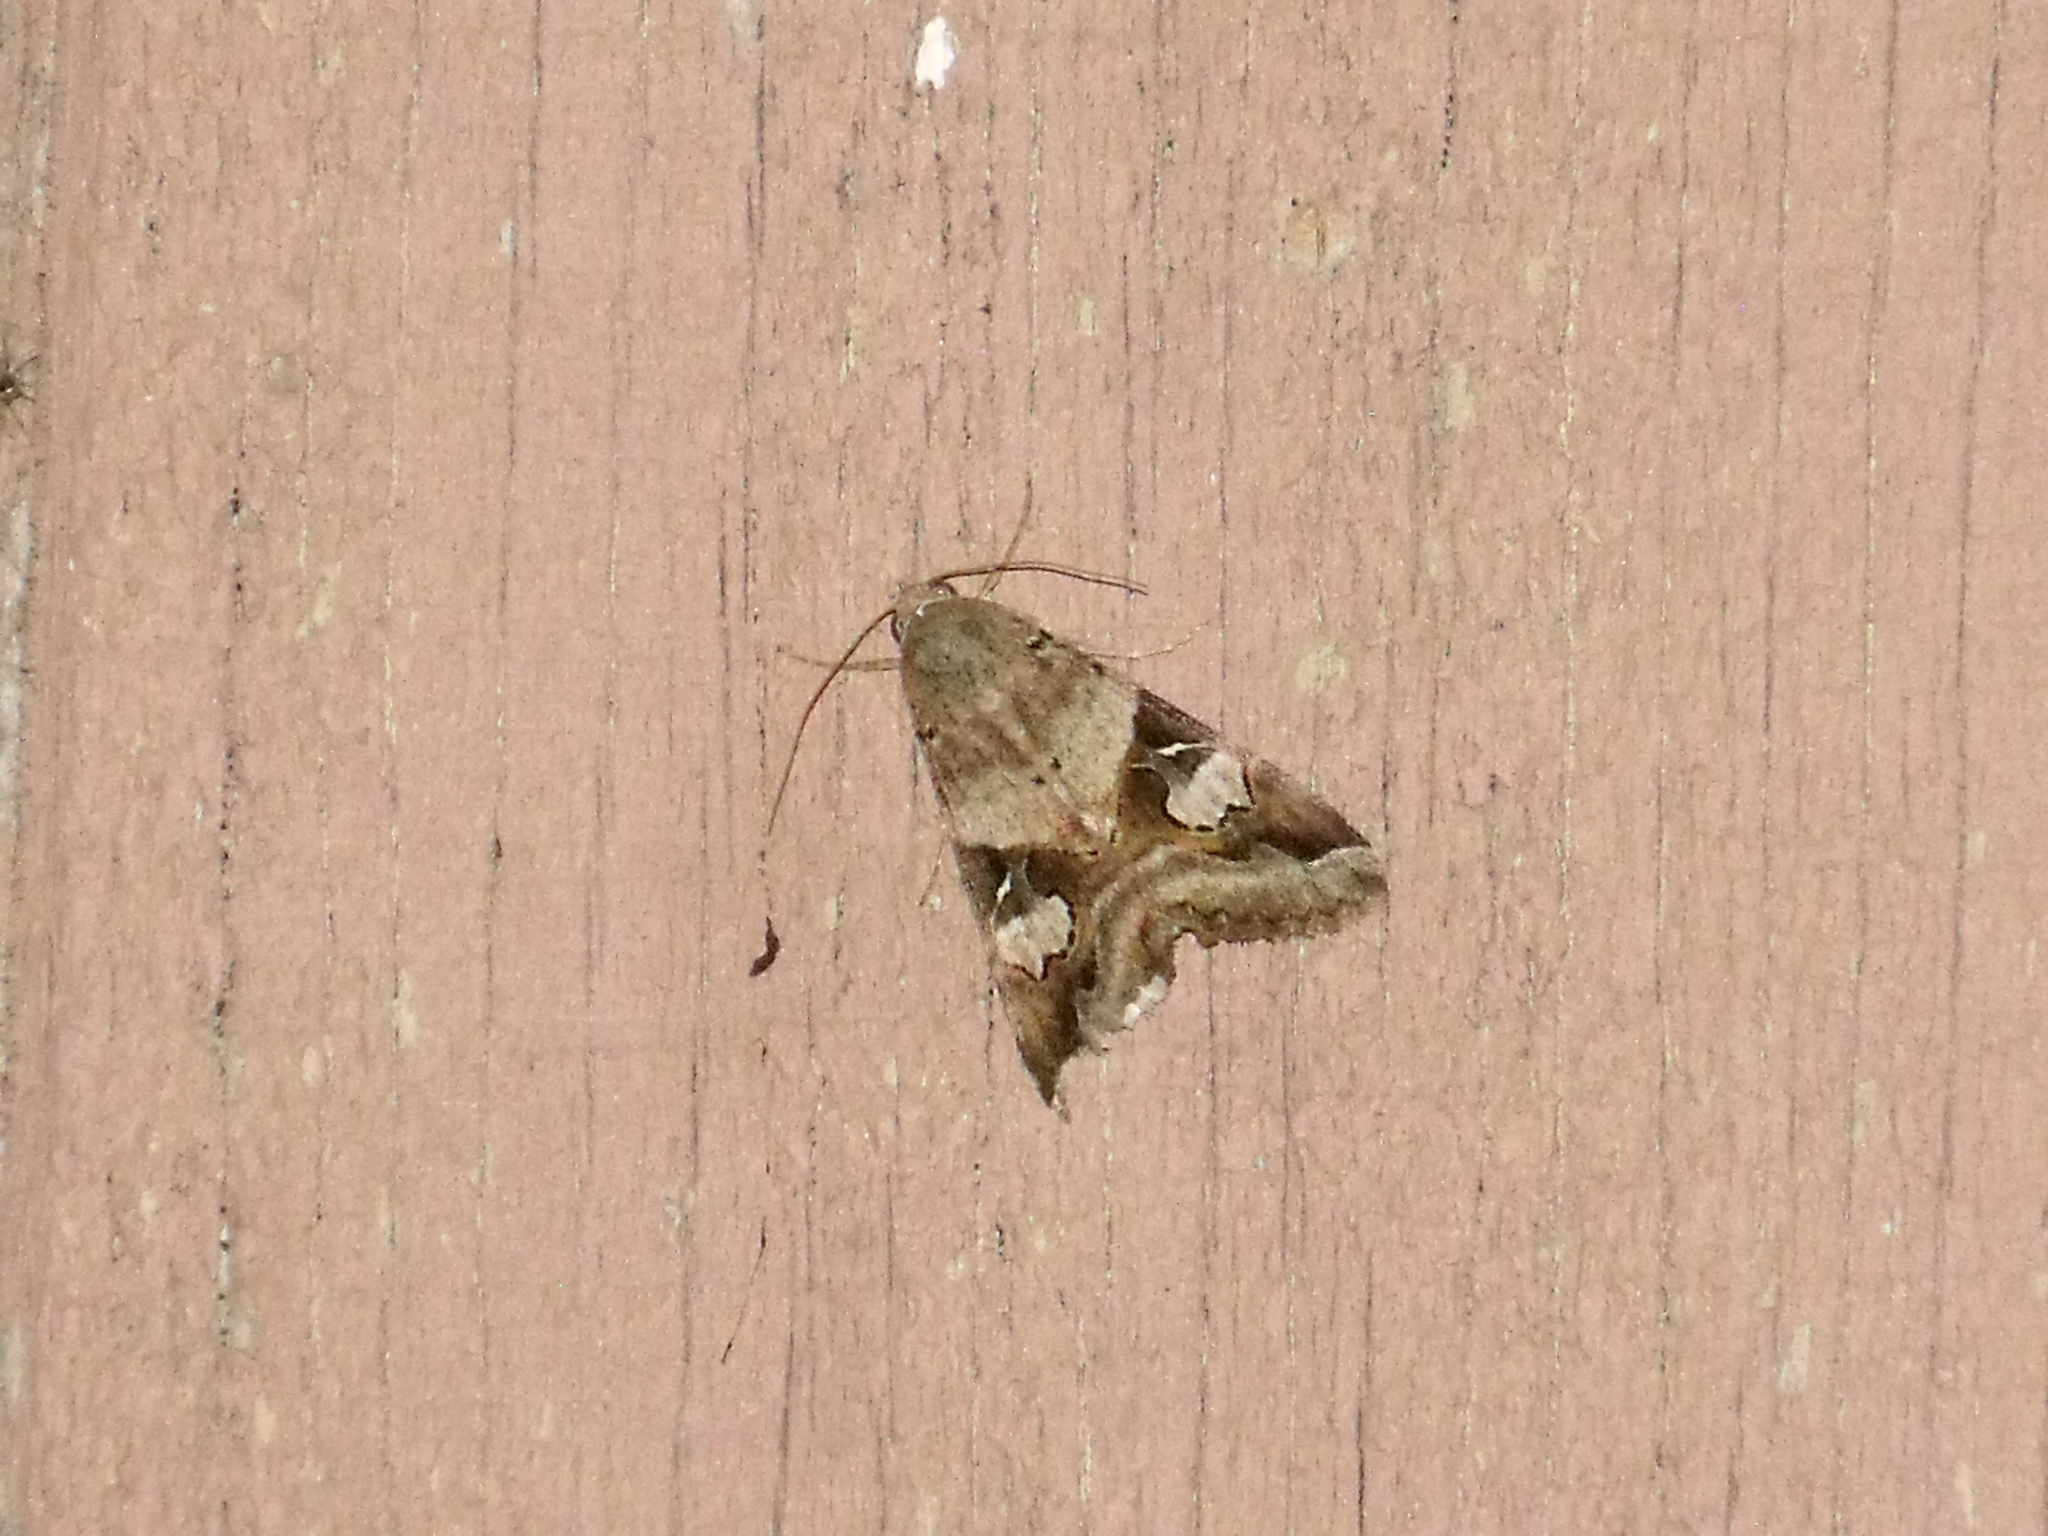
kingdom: Animalia
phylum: Arthropoda
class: Insecta
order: Lepidoptera
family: Erebidae
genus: Melipotis
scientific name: Melipotis indomita
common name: Moth
